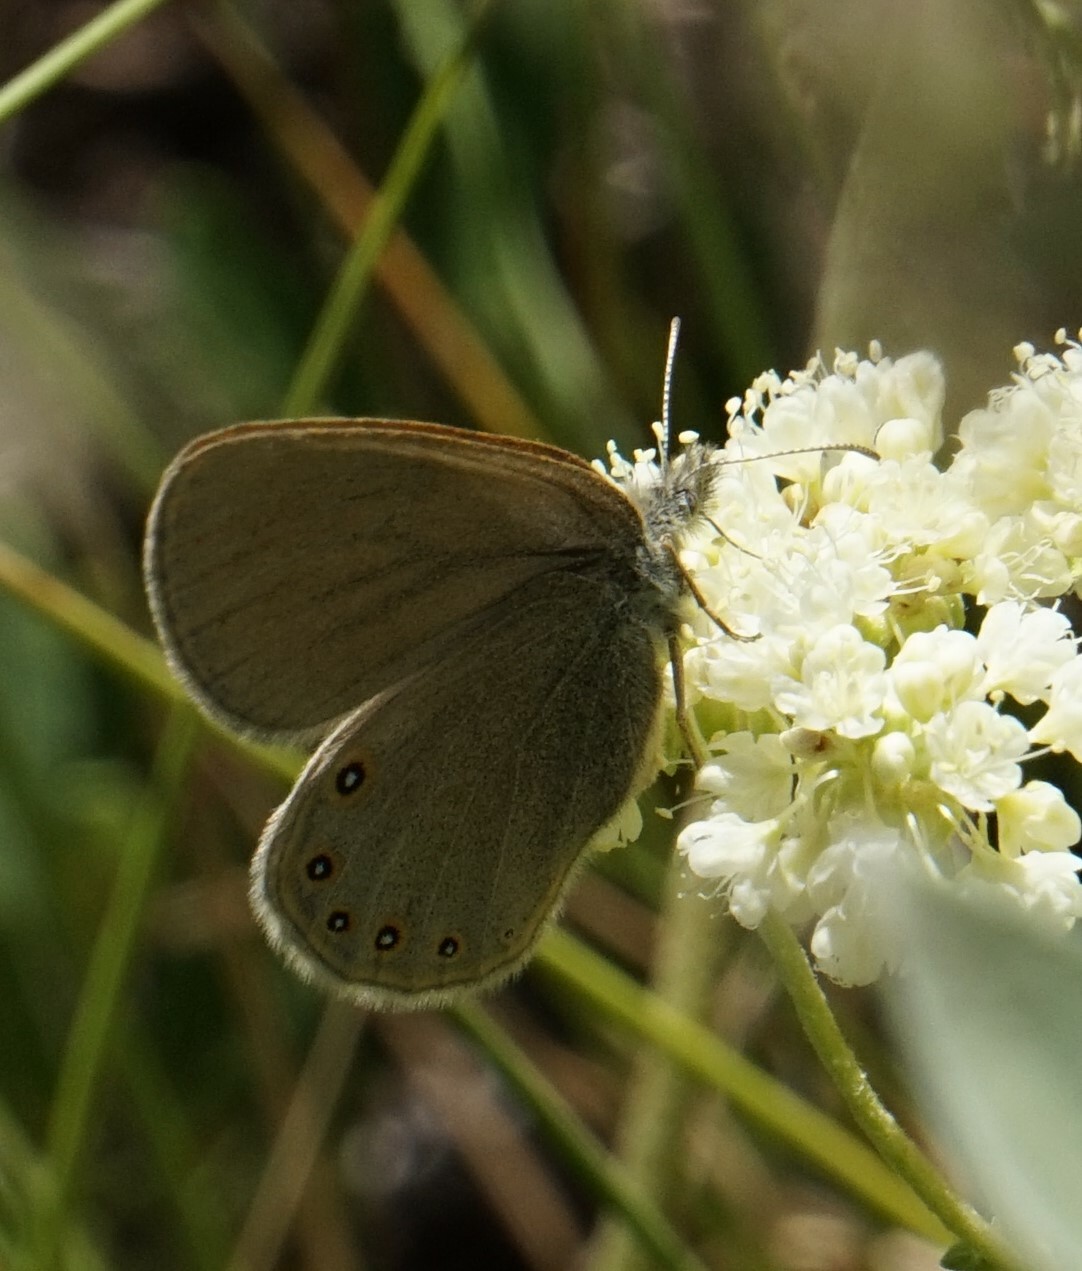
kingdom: Animalia
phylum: Arthropoda
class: Insecta
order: Lepidoptera
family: Nymphalidae
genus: Coenonympha
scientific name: Coenonympha haydeni
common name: Hayden's ringlet
